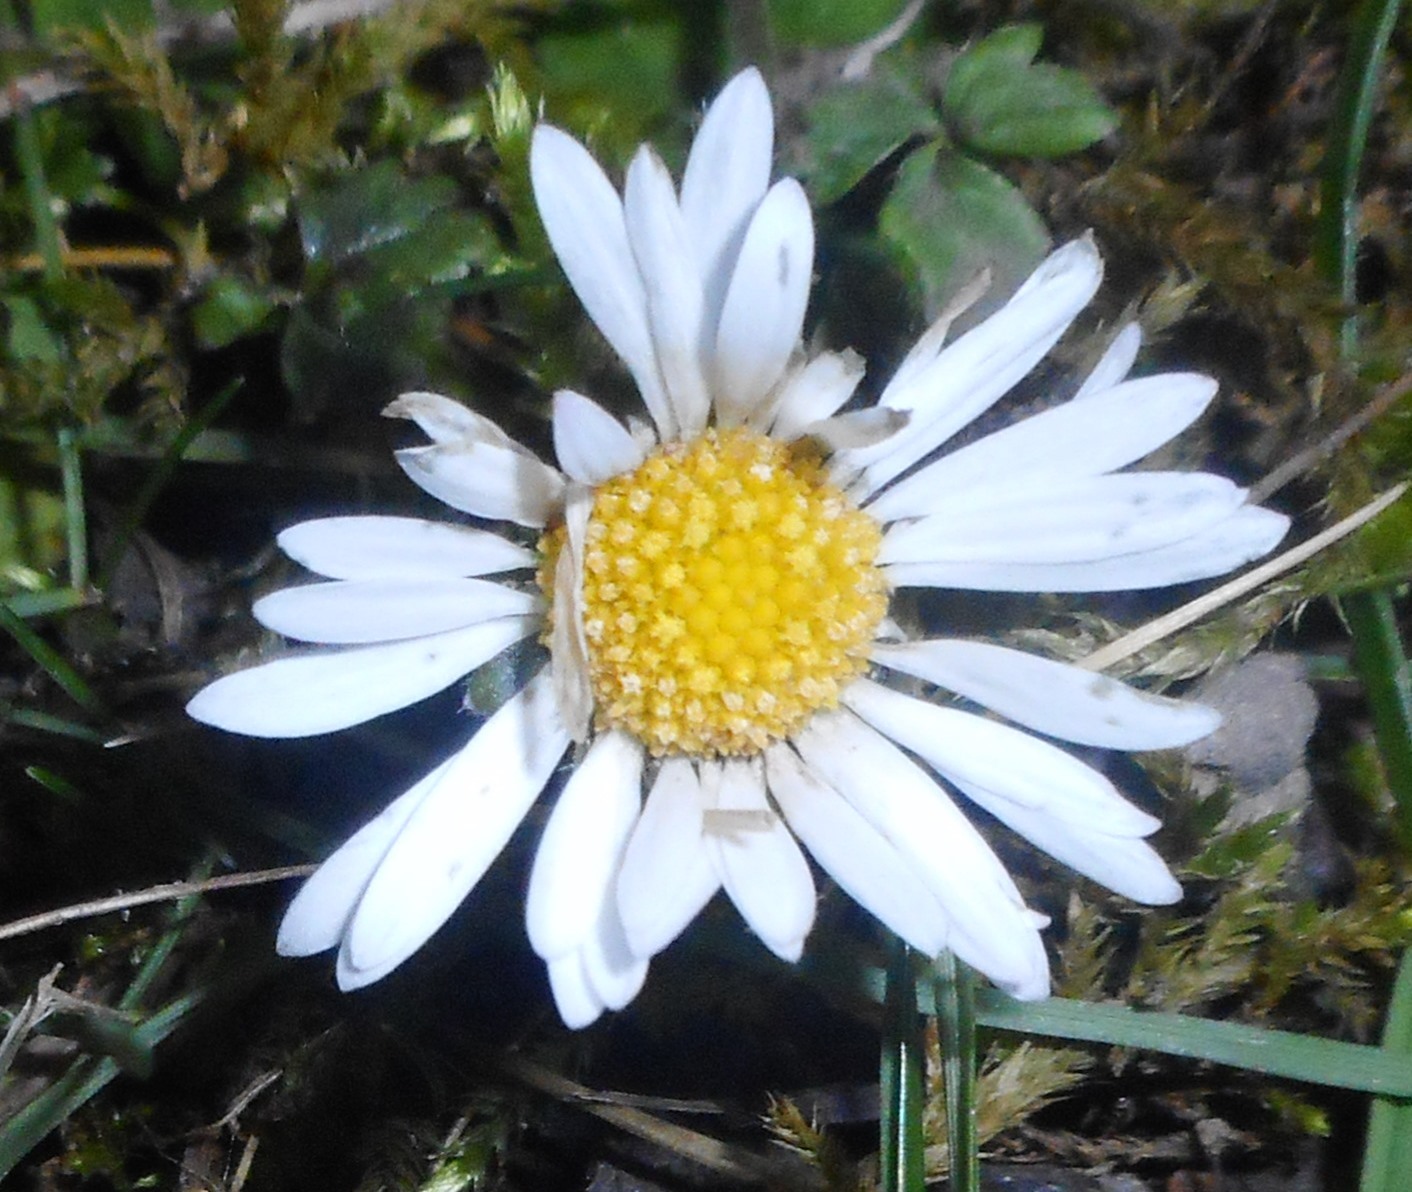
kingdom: Plantae
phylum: Tracheophyta
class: Magnoliopsida
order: Asterales
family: Asteraceae
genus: Bellis
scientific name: Bellis perennis
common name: Lawndaisy
